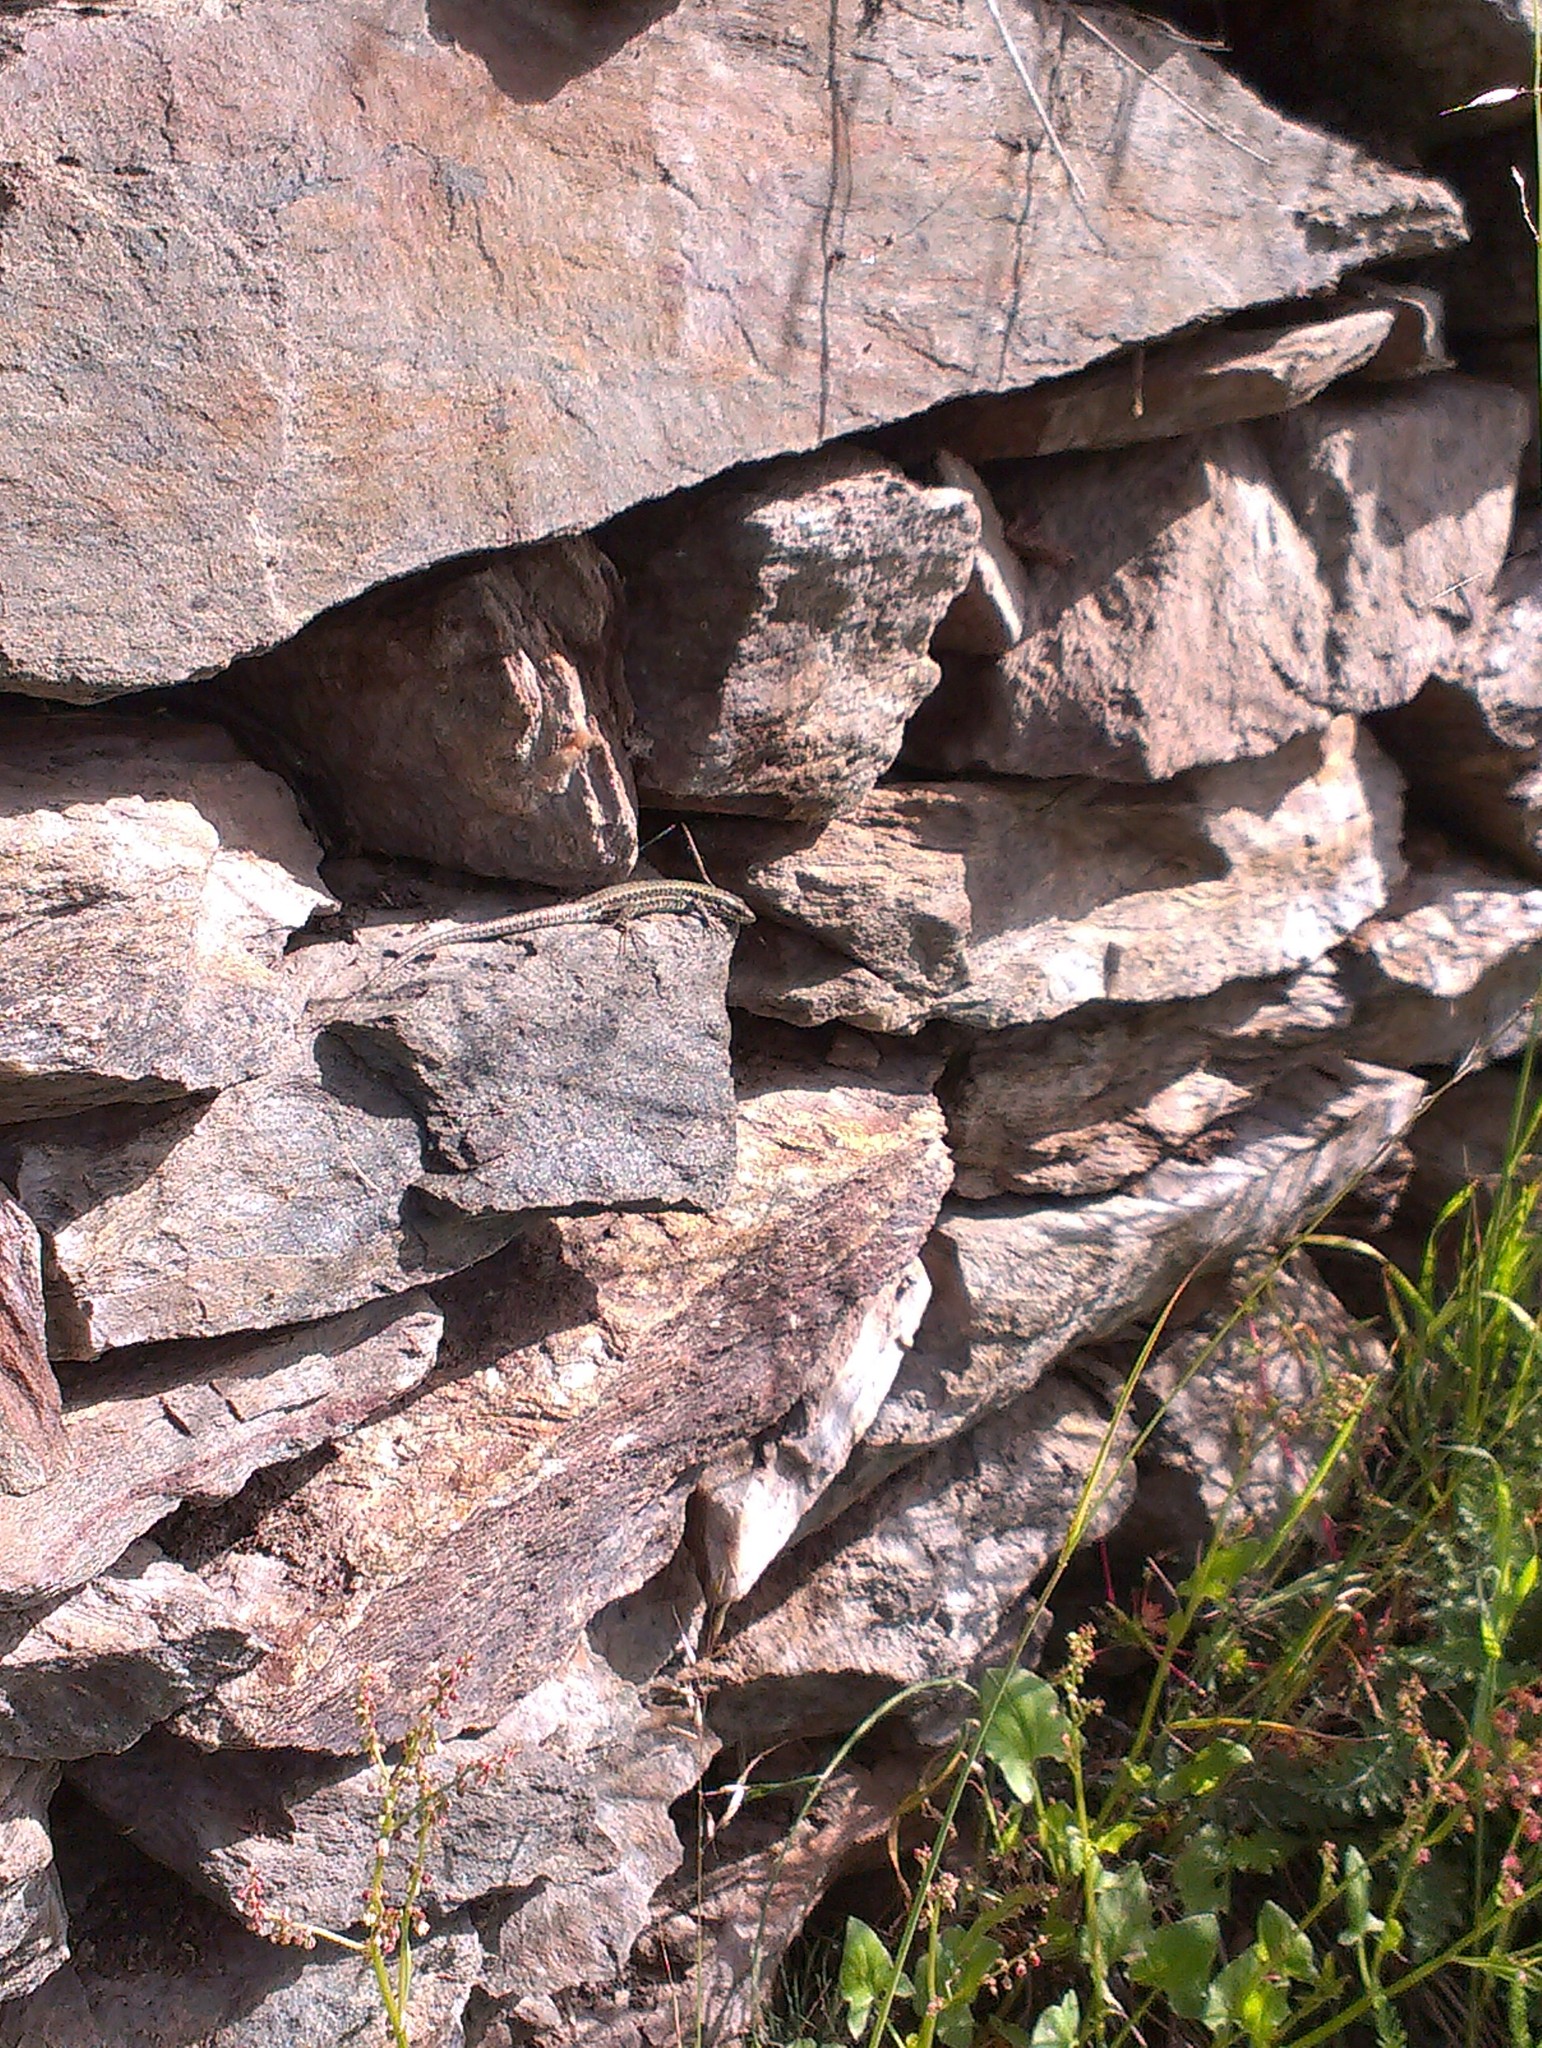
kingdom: Animalia
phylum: Chordata
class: Squamata
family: Lacertidae
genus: Podarcis
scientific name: Podarcis muralis
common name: Common wall lizard
